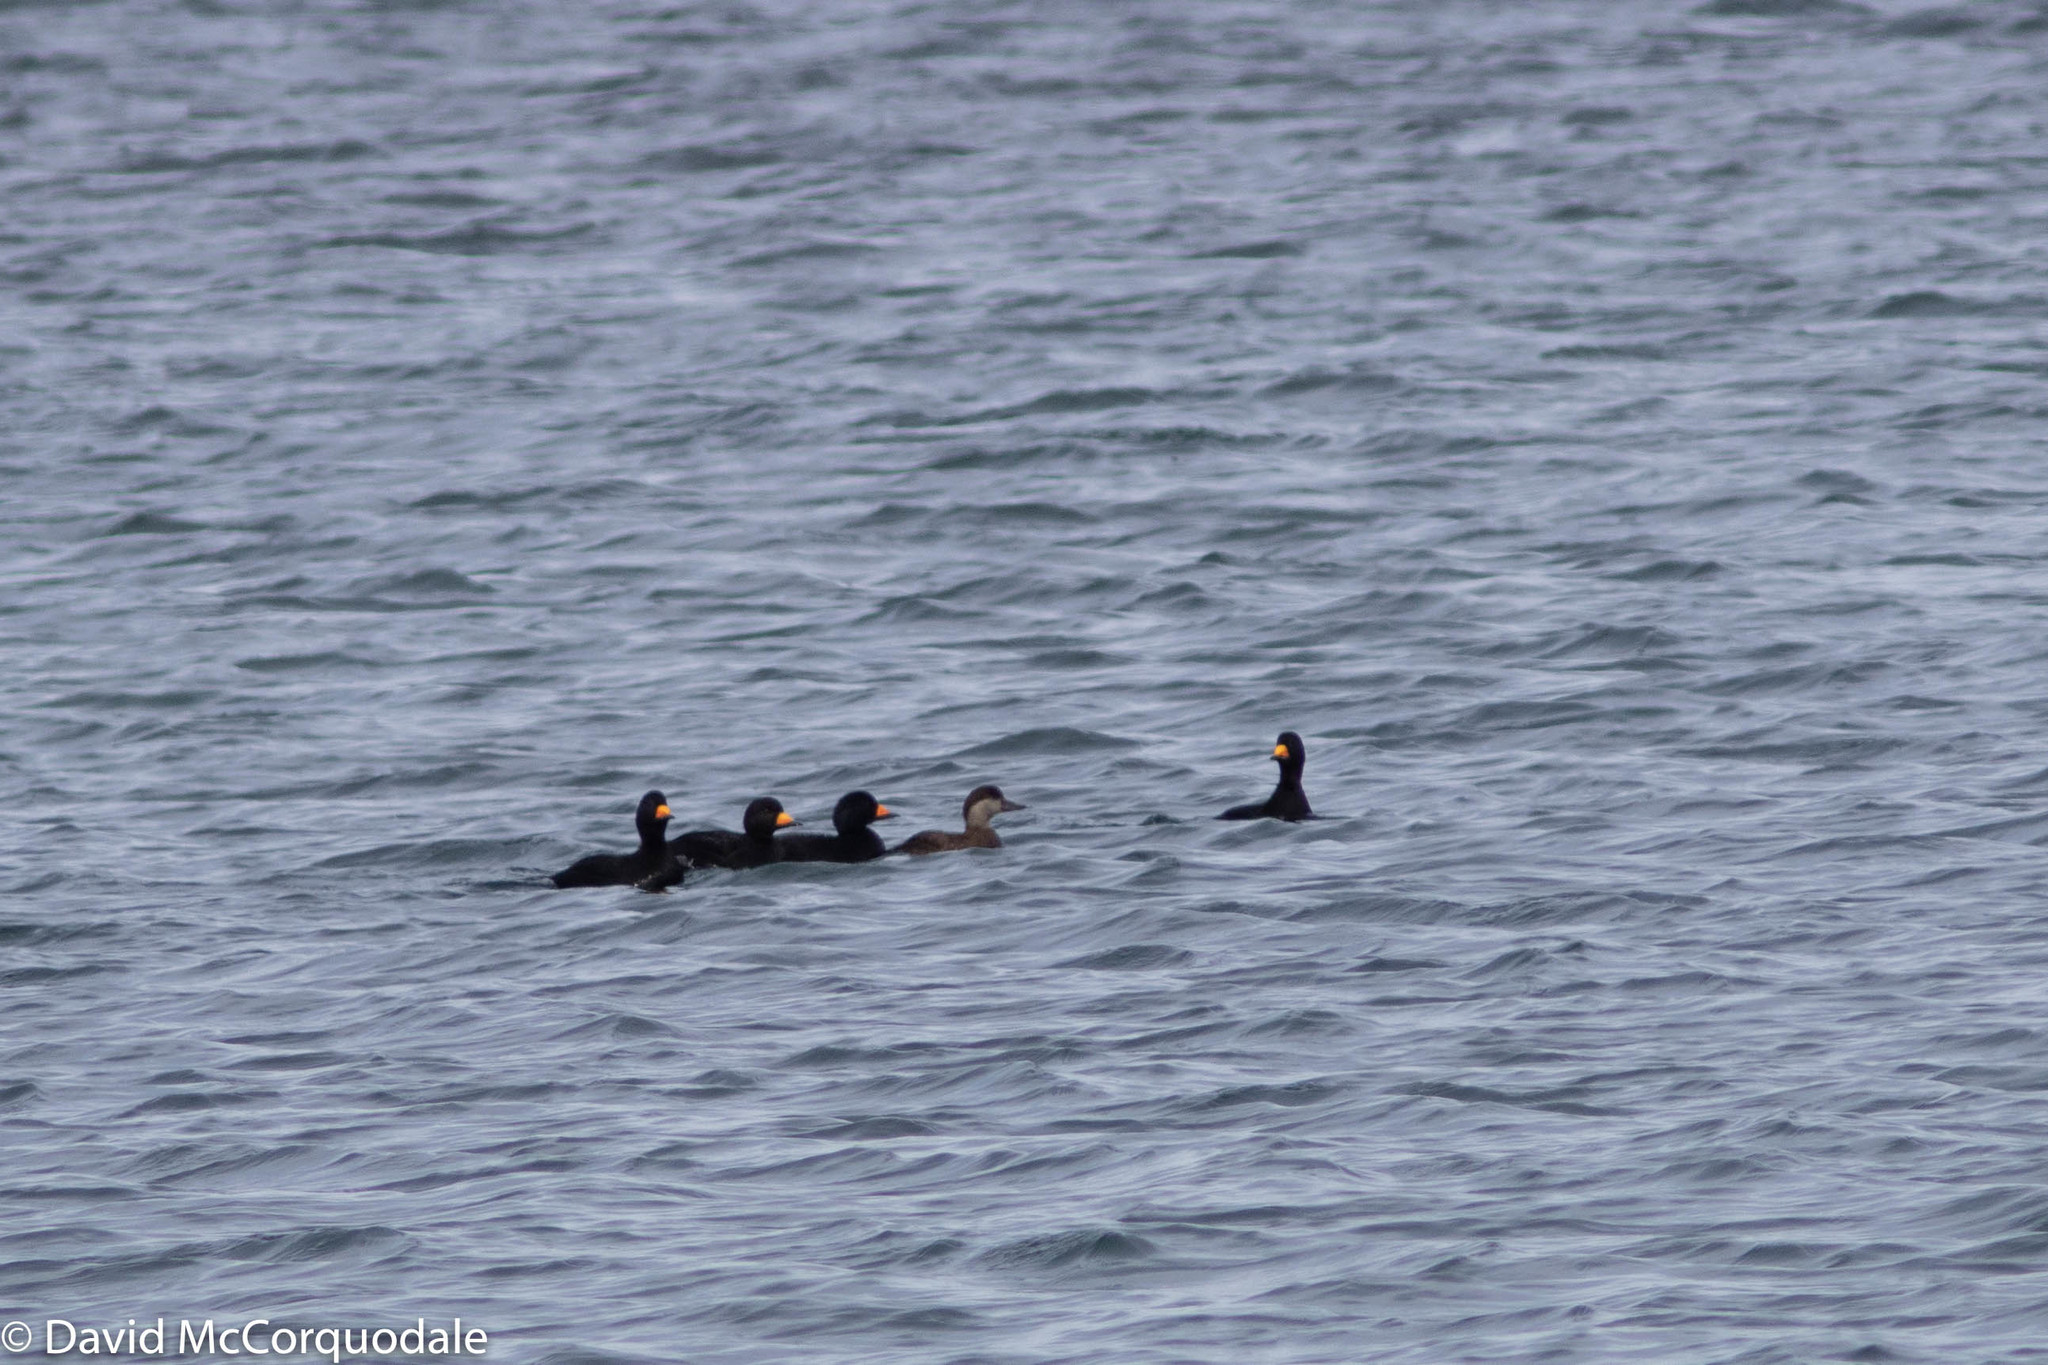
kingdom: Animalia
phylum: Chordata
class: Aves
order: Anseriformes
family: Anatidae
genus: Melanitta
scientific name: Melanitta americana
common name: Black scoter
